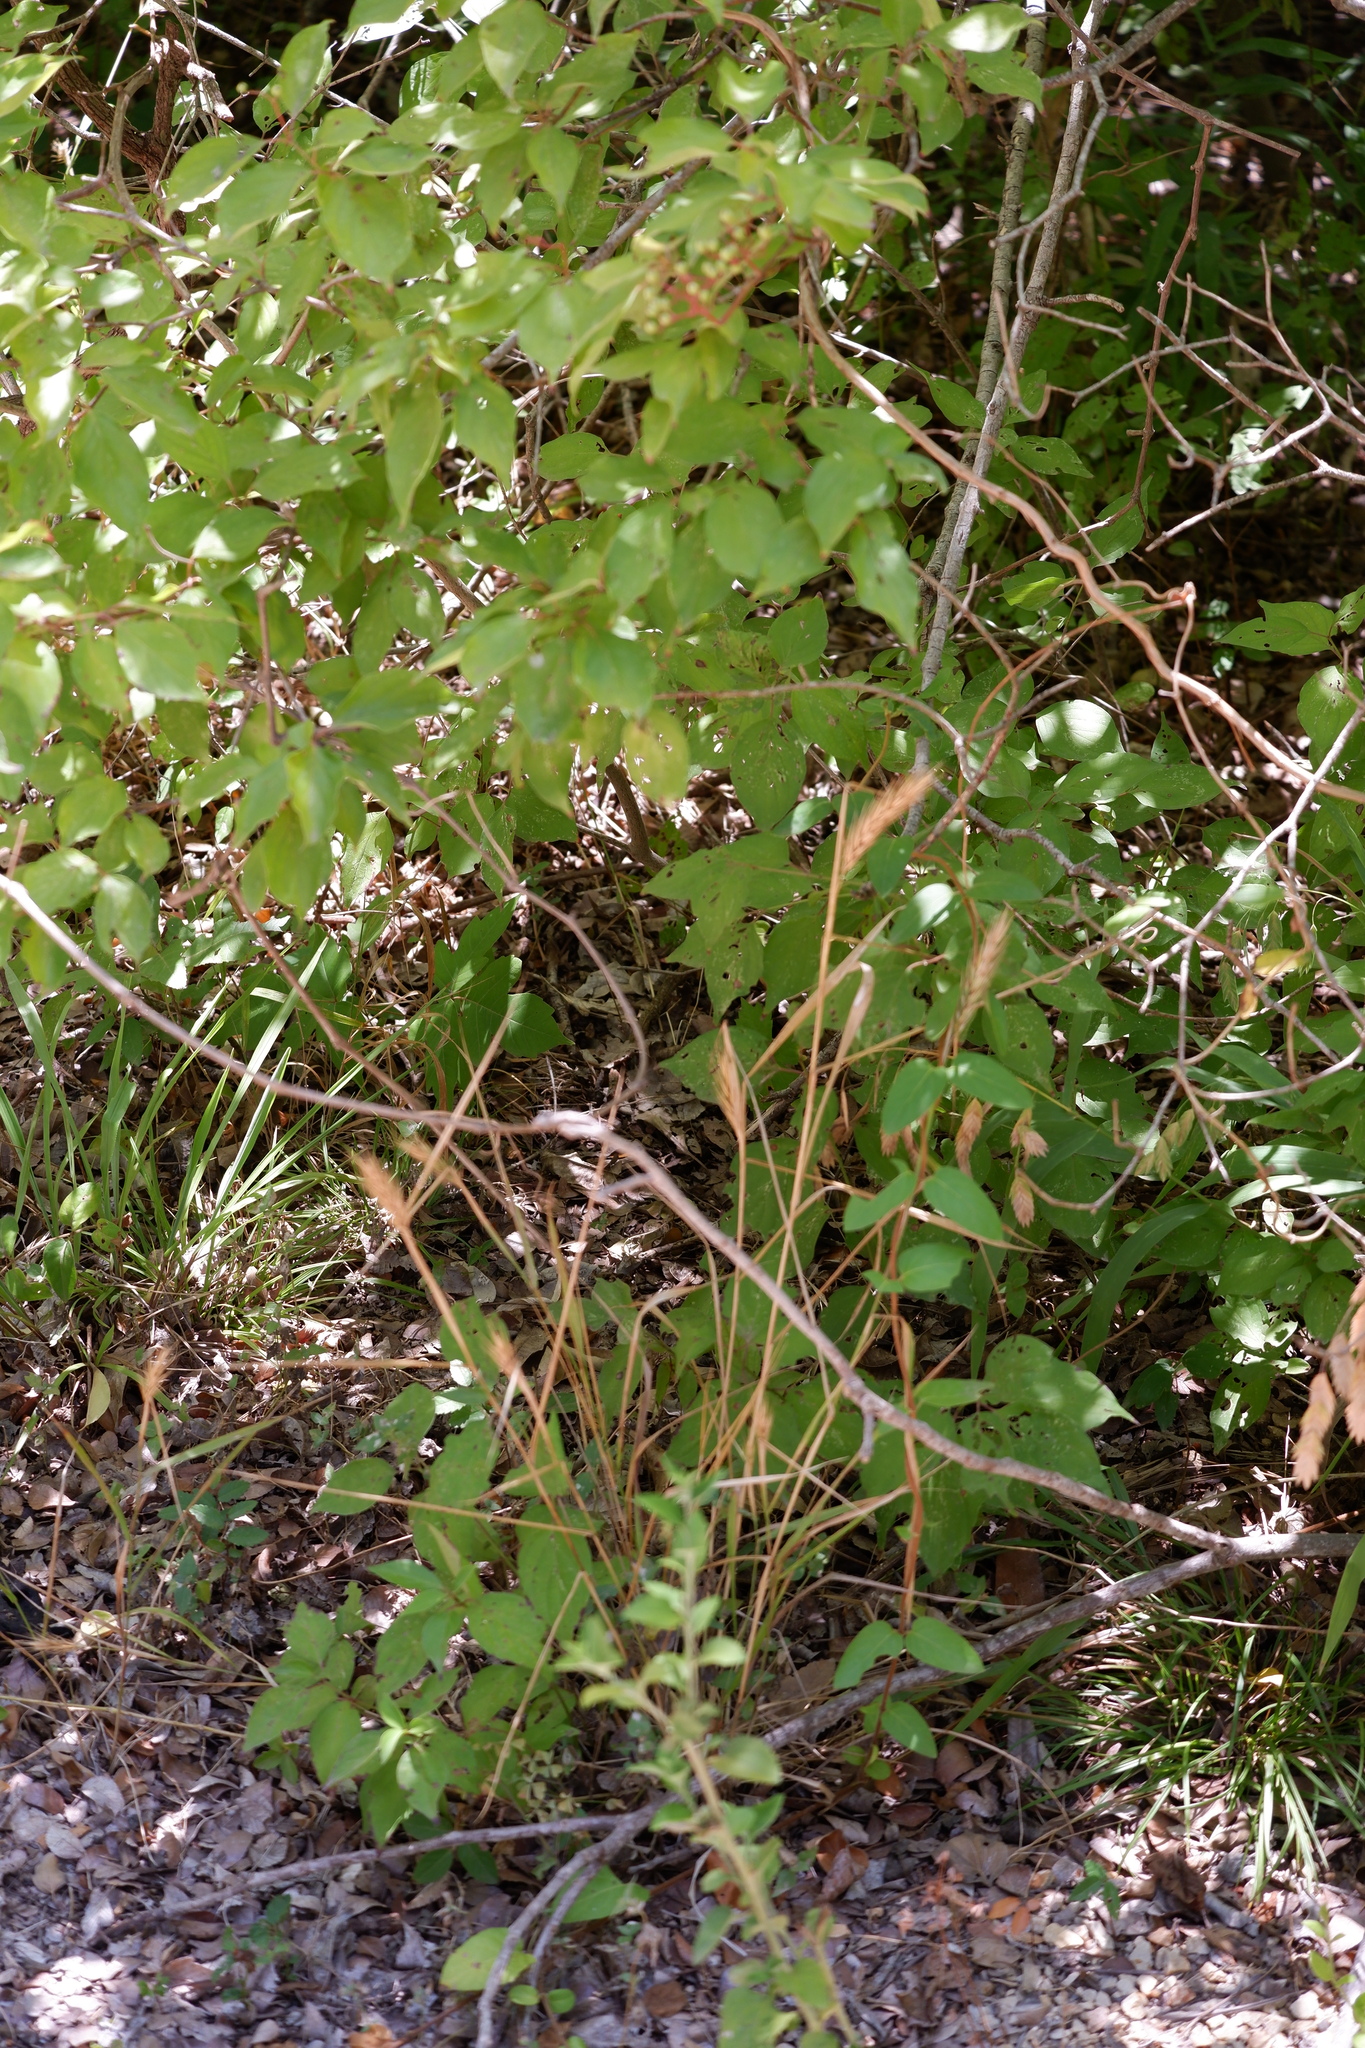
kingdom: Plantae
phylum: Tracheophyta
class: Liliopsida
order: Poales
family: Poaceae
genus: Elymus
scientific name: Elymus virginicus
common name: Common eastern wildrye
